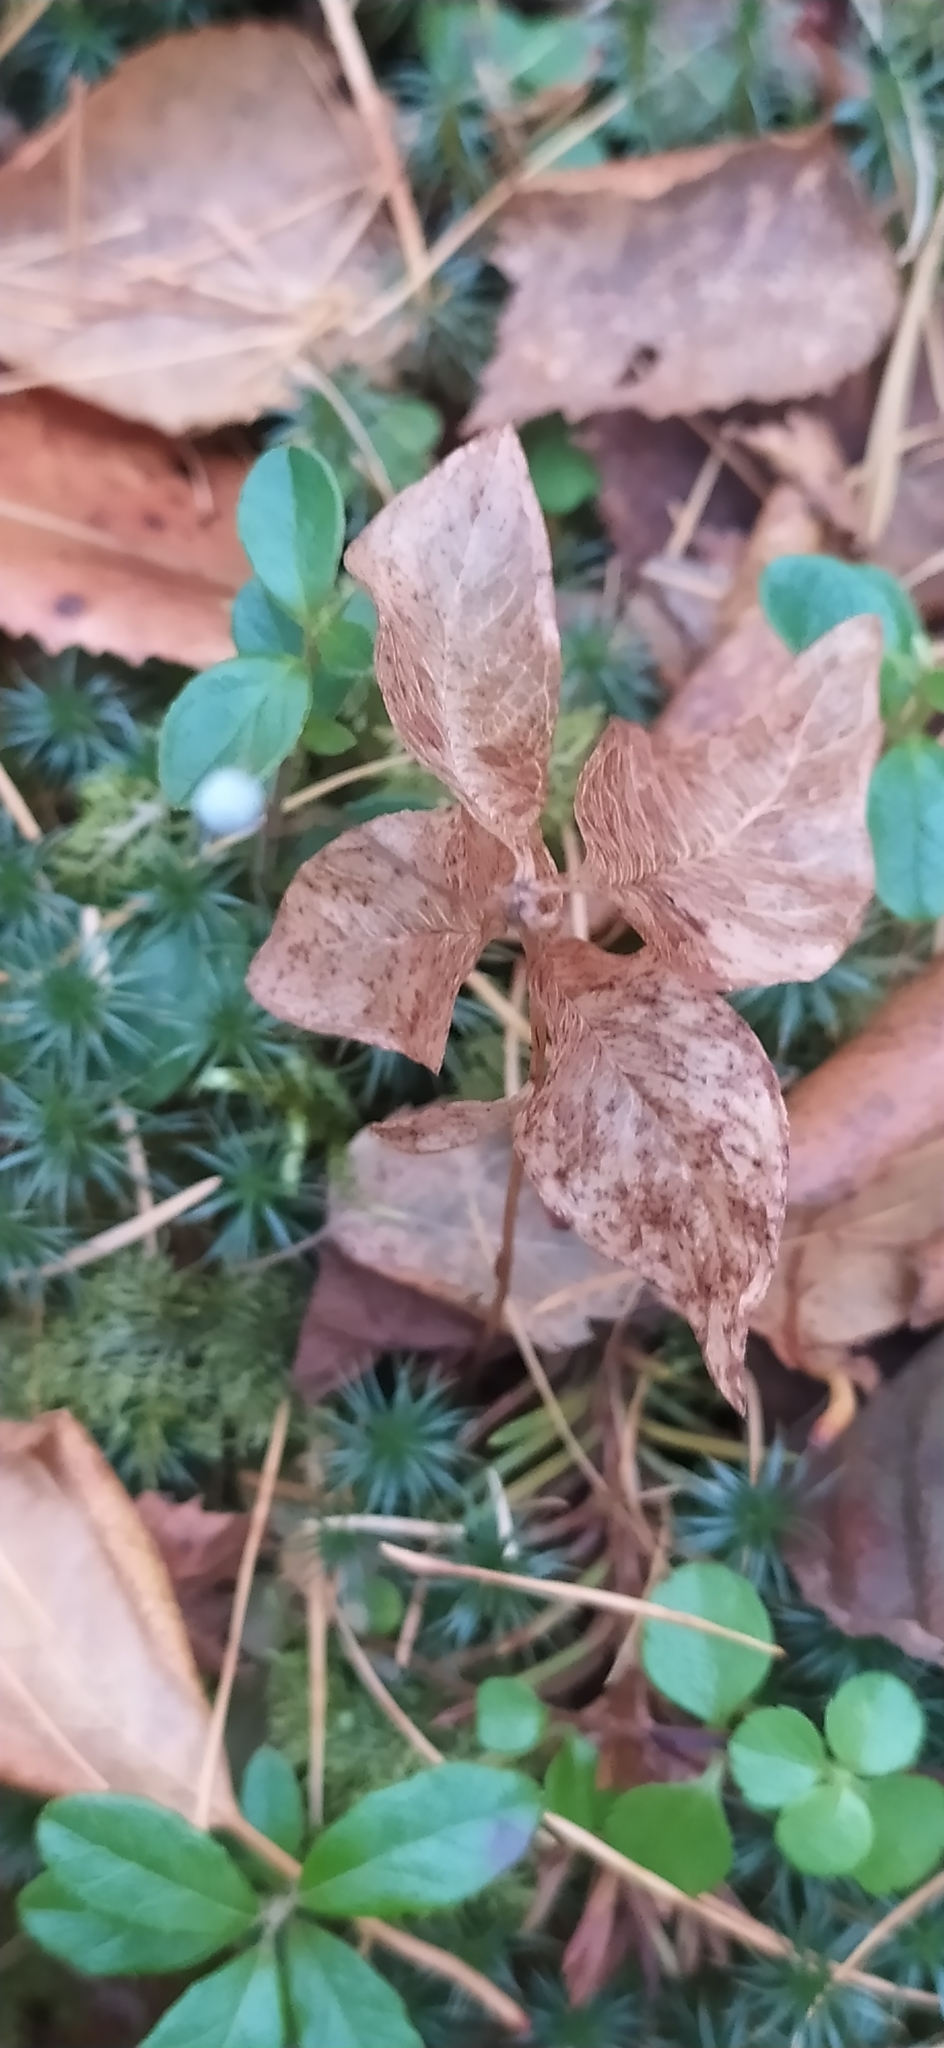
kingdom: Plantae
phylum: Tracheophyta
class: Liliopsida
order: Liliales
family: Melanthiaceae
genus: Paris
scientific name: Paris quadrifolia
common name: Herb-paris
